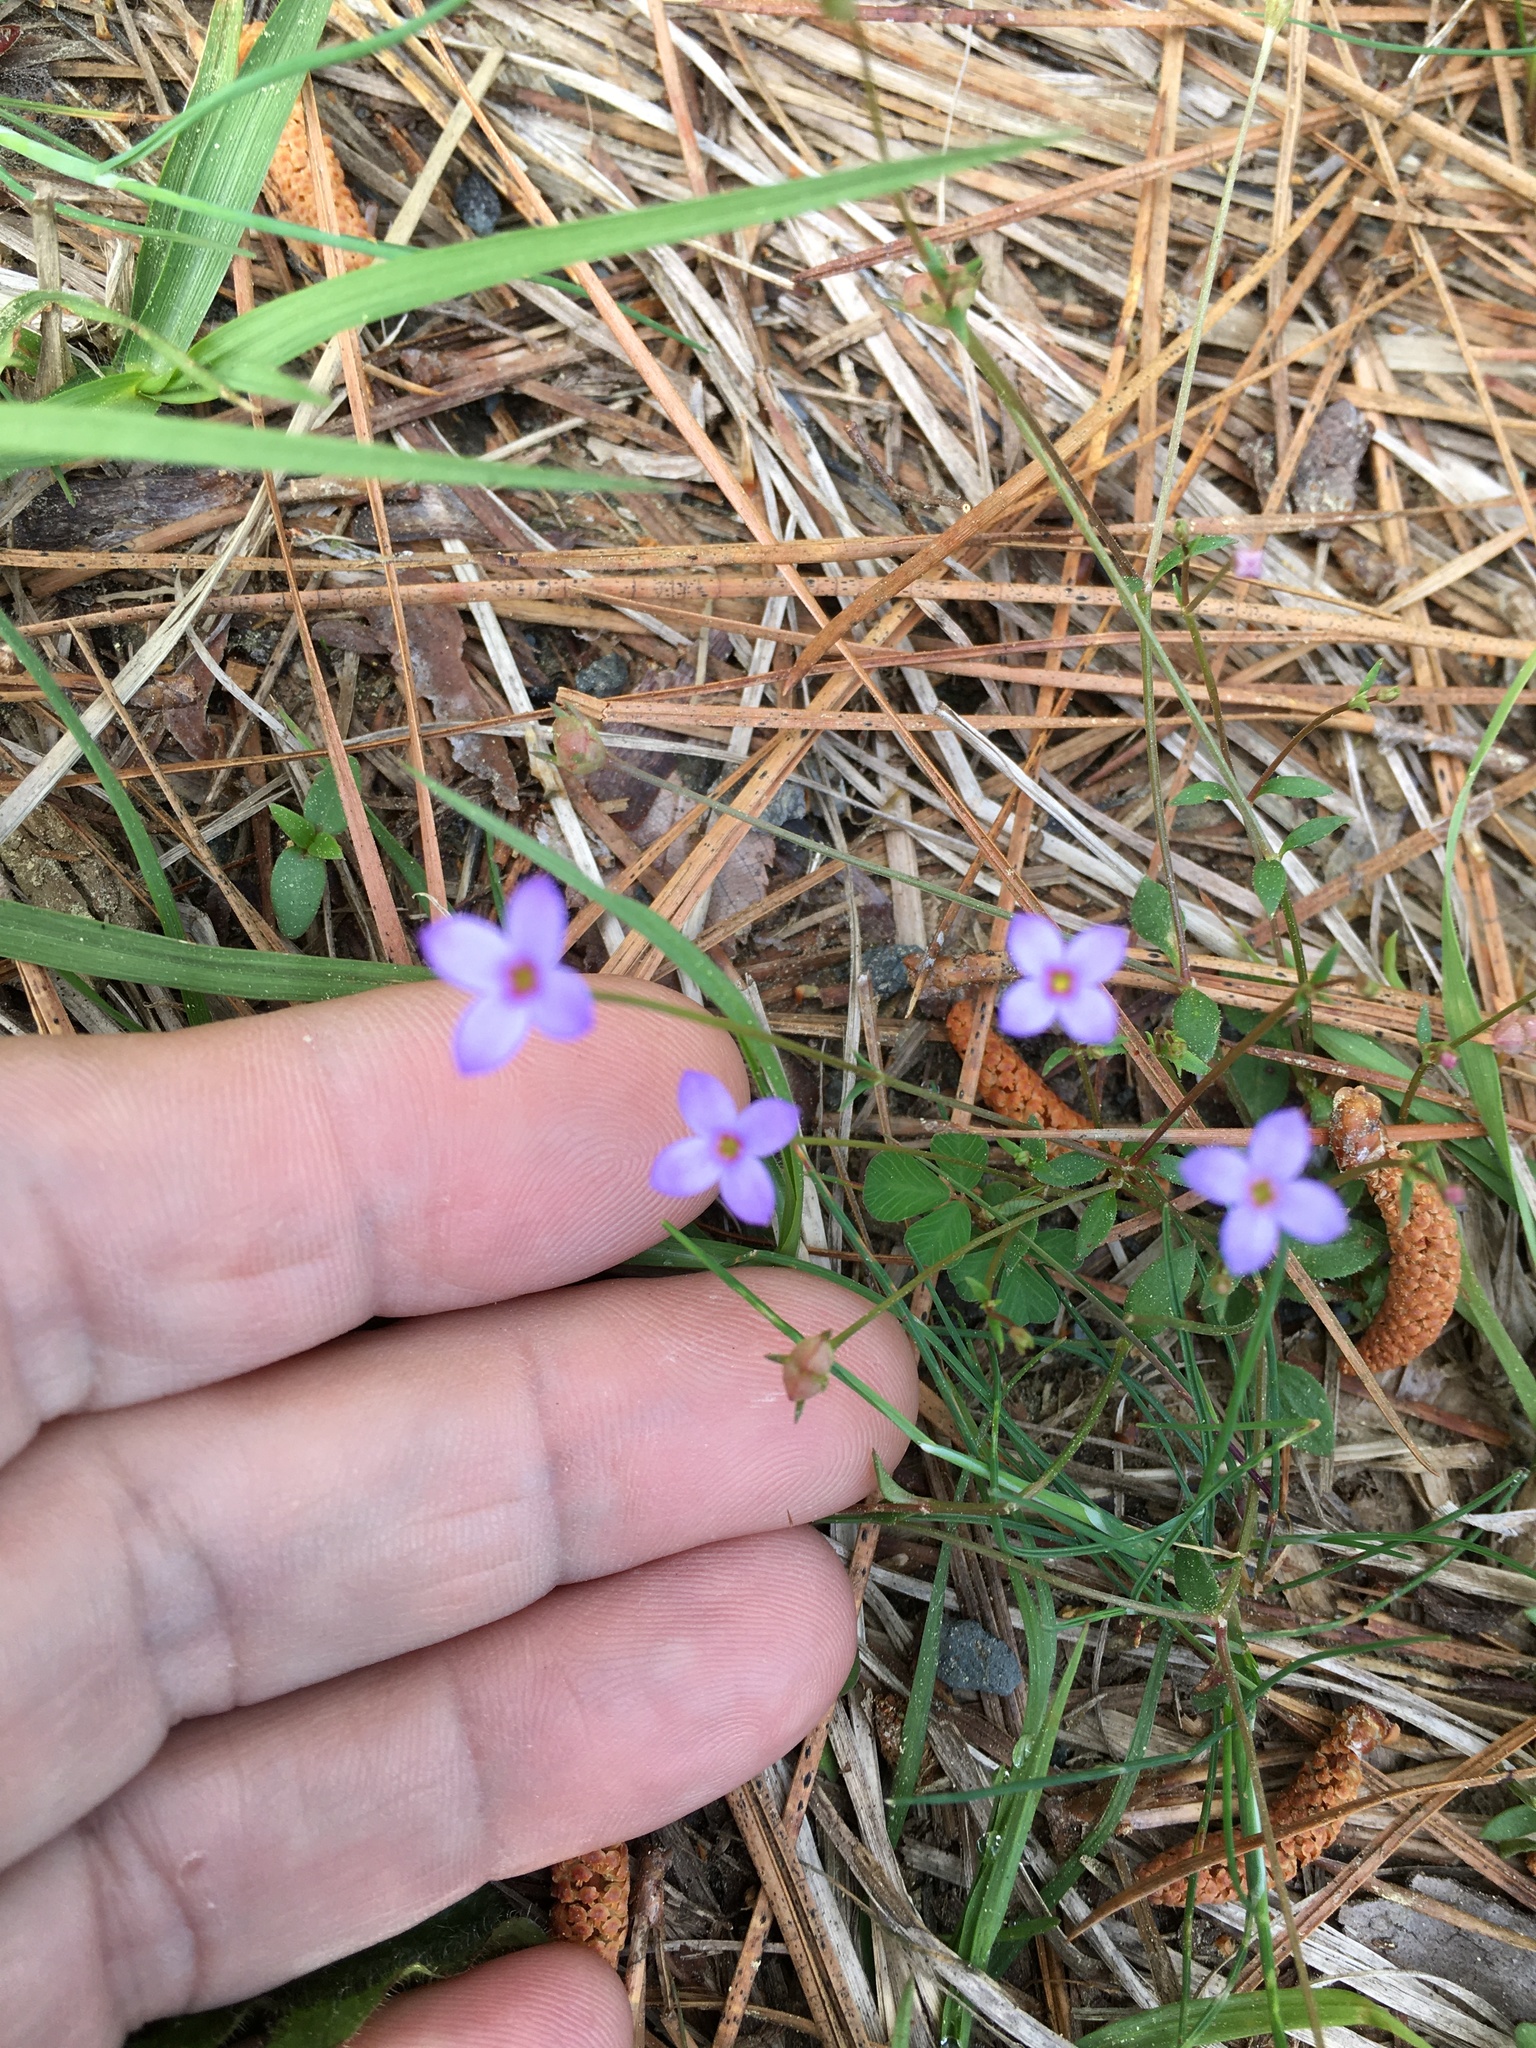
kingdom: Plantae
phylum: Tracheophyta
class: Magnoliopsida
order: Gentianales
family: Rubiaceae
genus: Houstonia
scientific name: Houstonia pusilla
